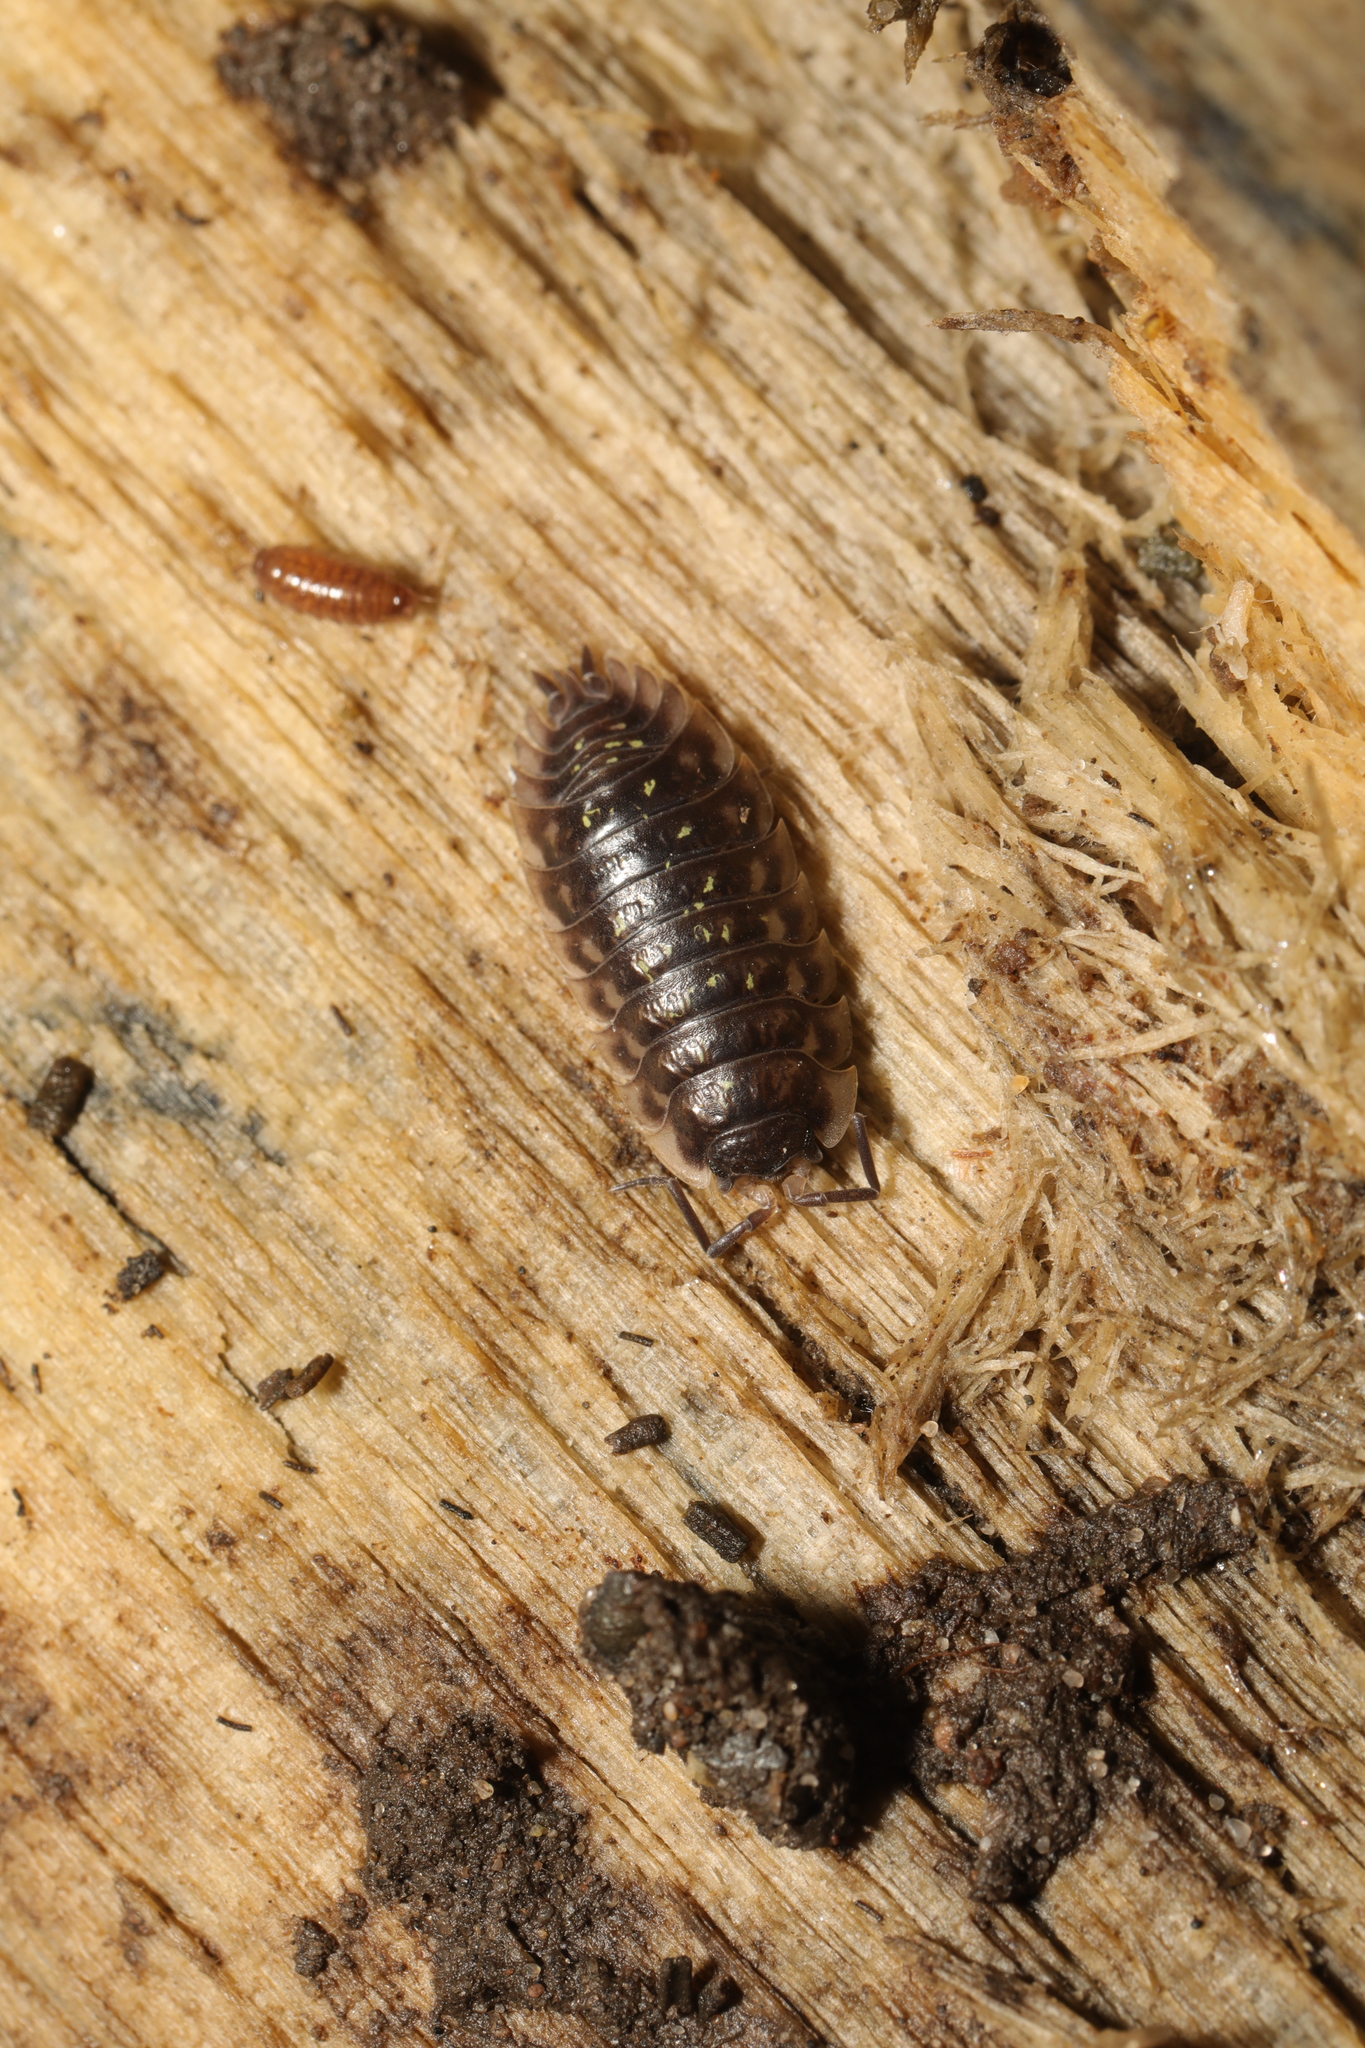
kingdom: Animalia
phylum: Arthropoda
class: Malacostraca
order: Isopoda
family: Oniscidae
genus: Oniscus
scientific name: Oniscus asellus
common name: Common shiny woodlouse
